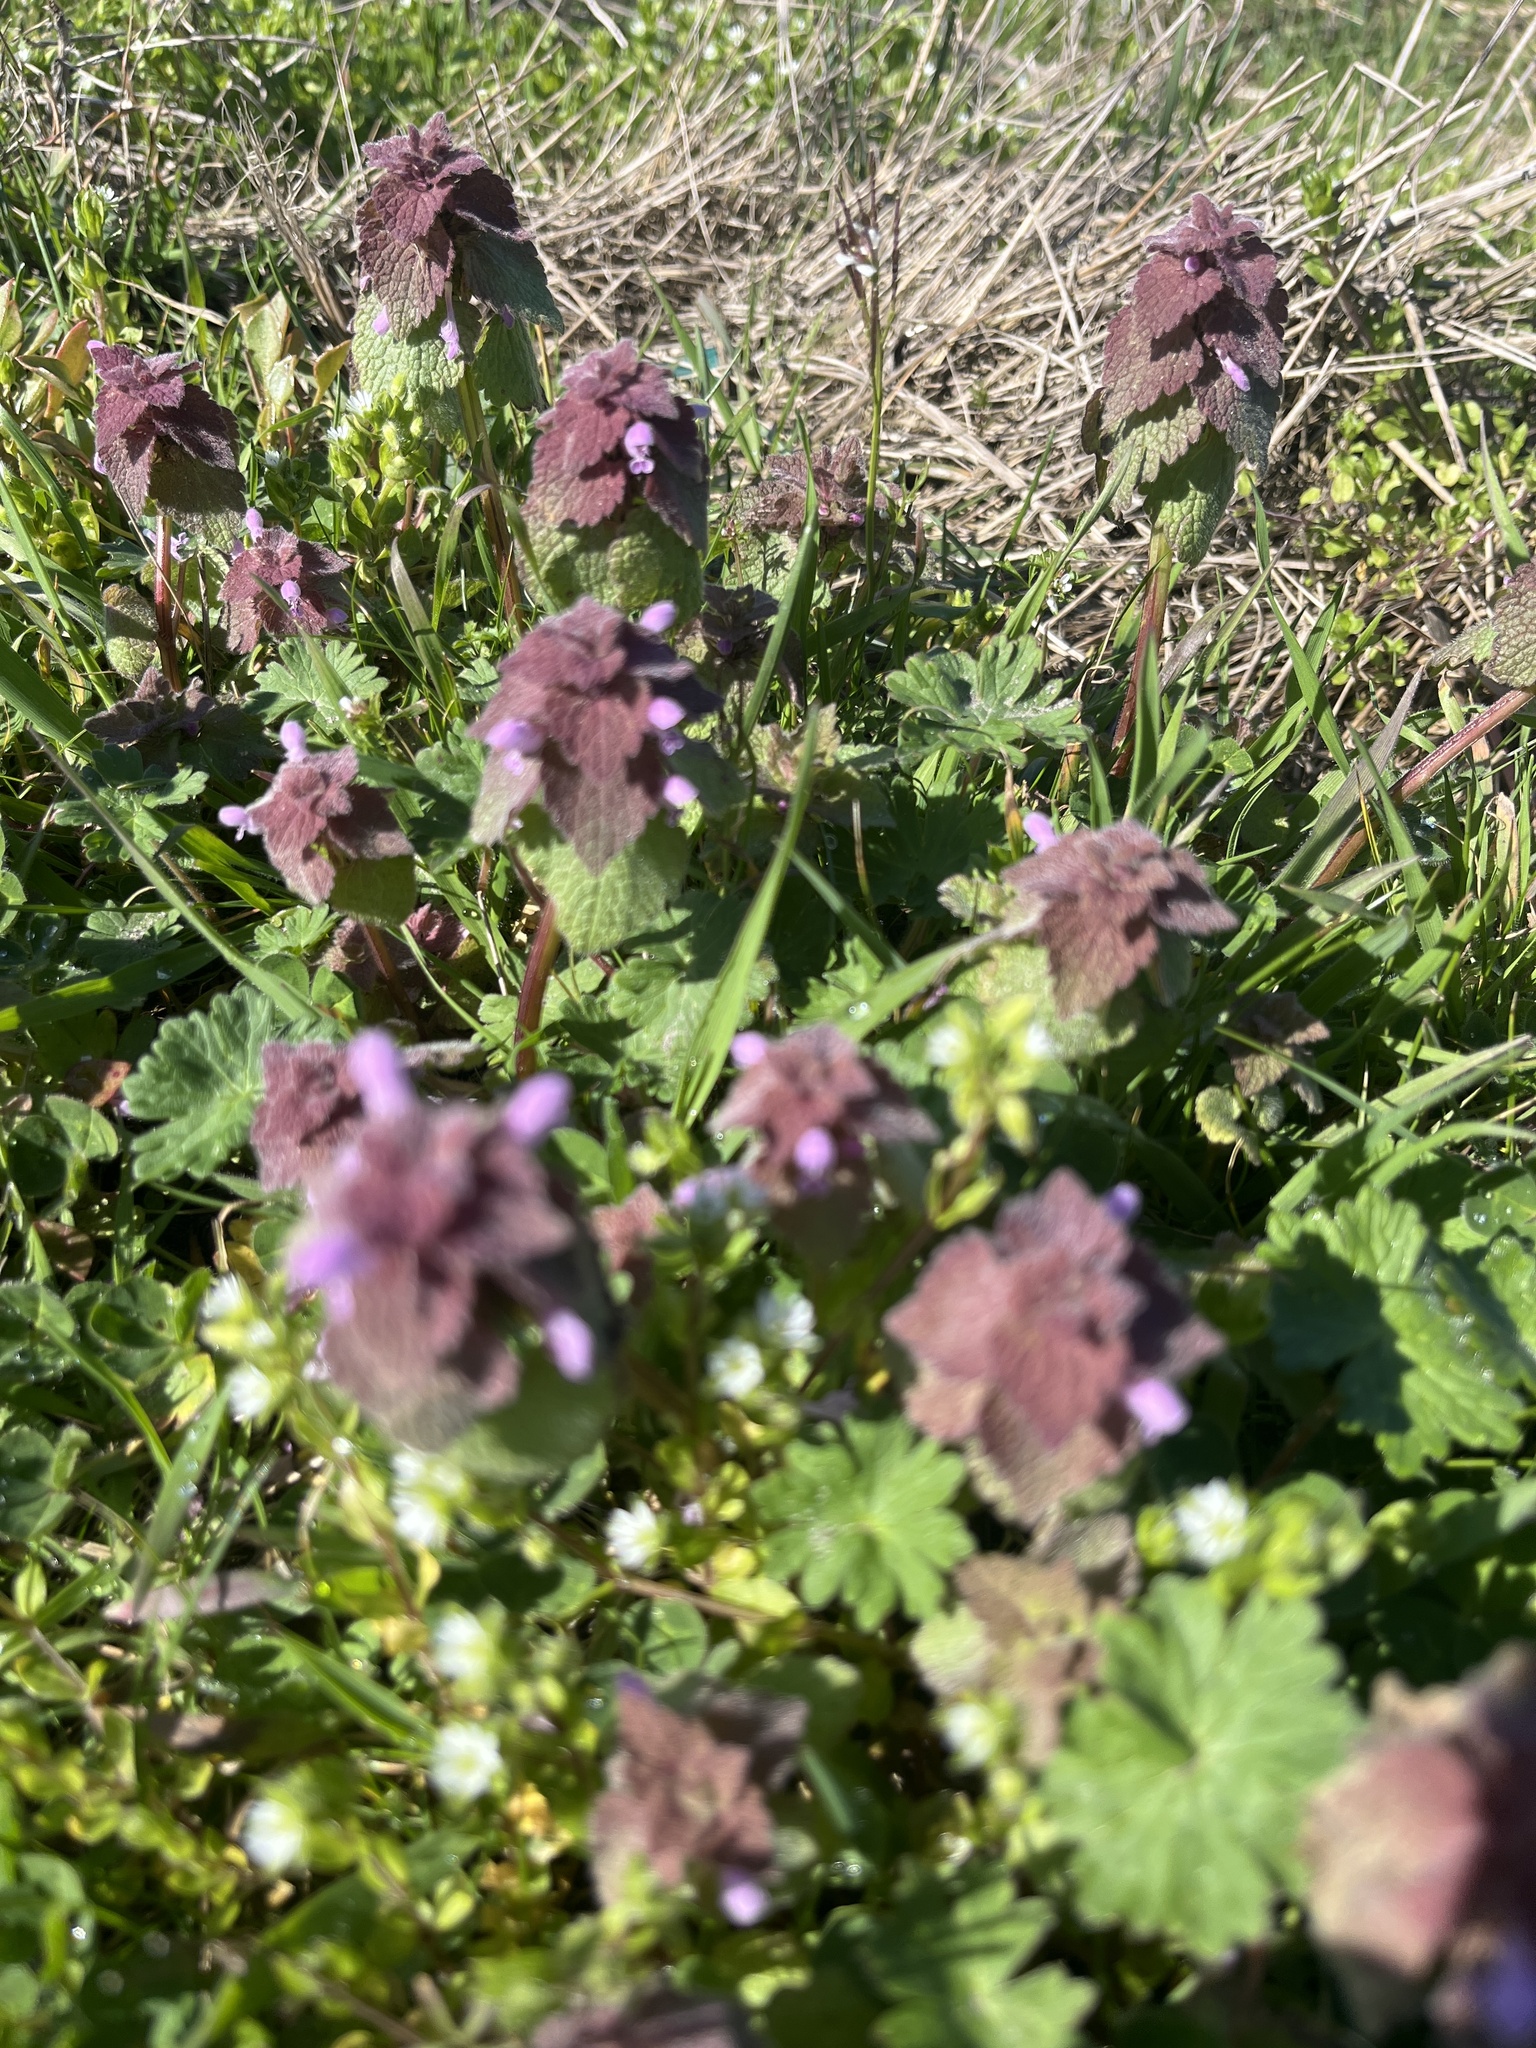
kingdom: Plantae
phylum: Tracheophyta
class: Magnoliopsida
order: Lamiales
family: Lamiaceae
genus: Lamium
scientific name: Lamium purpureum
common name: Red dead-nettle
